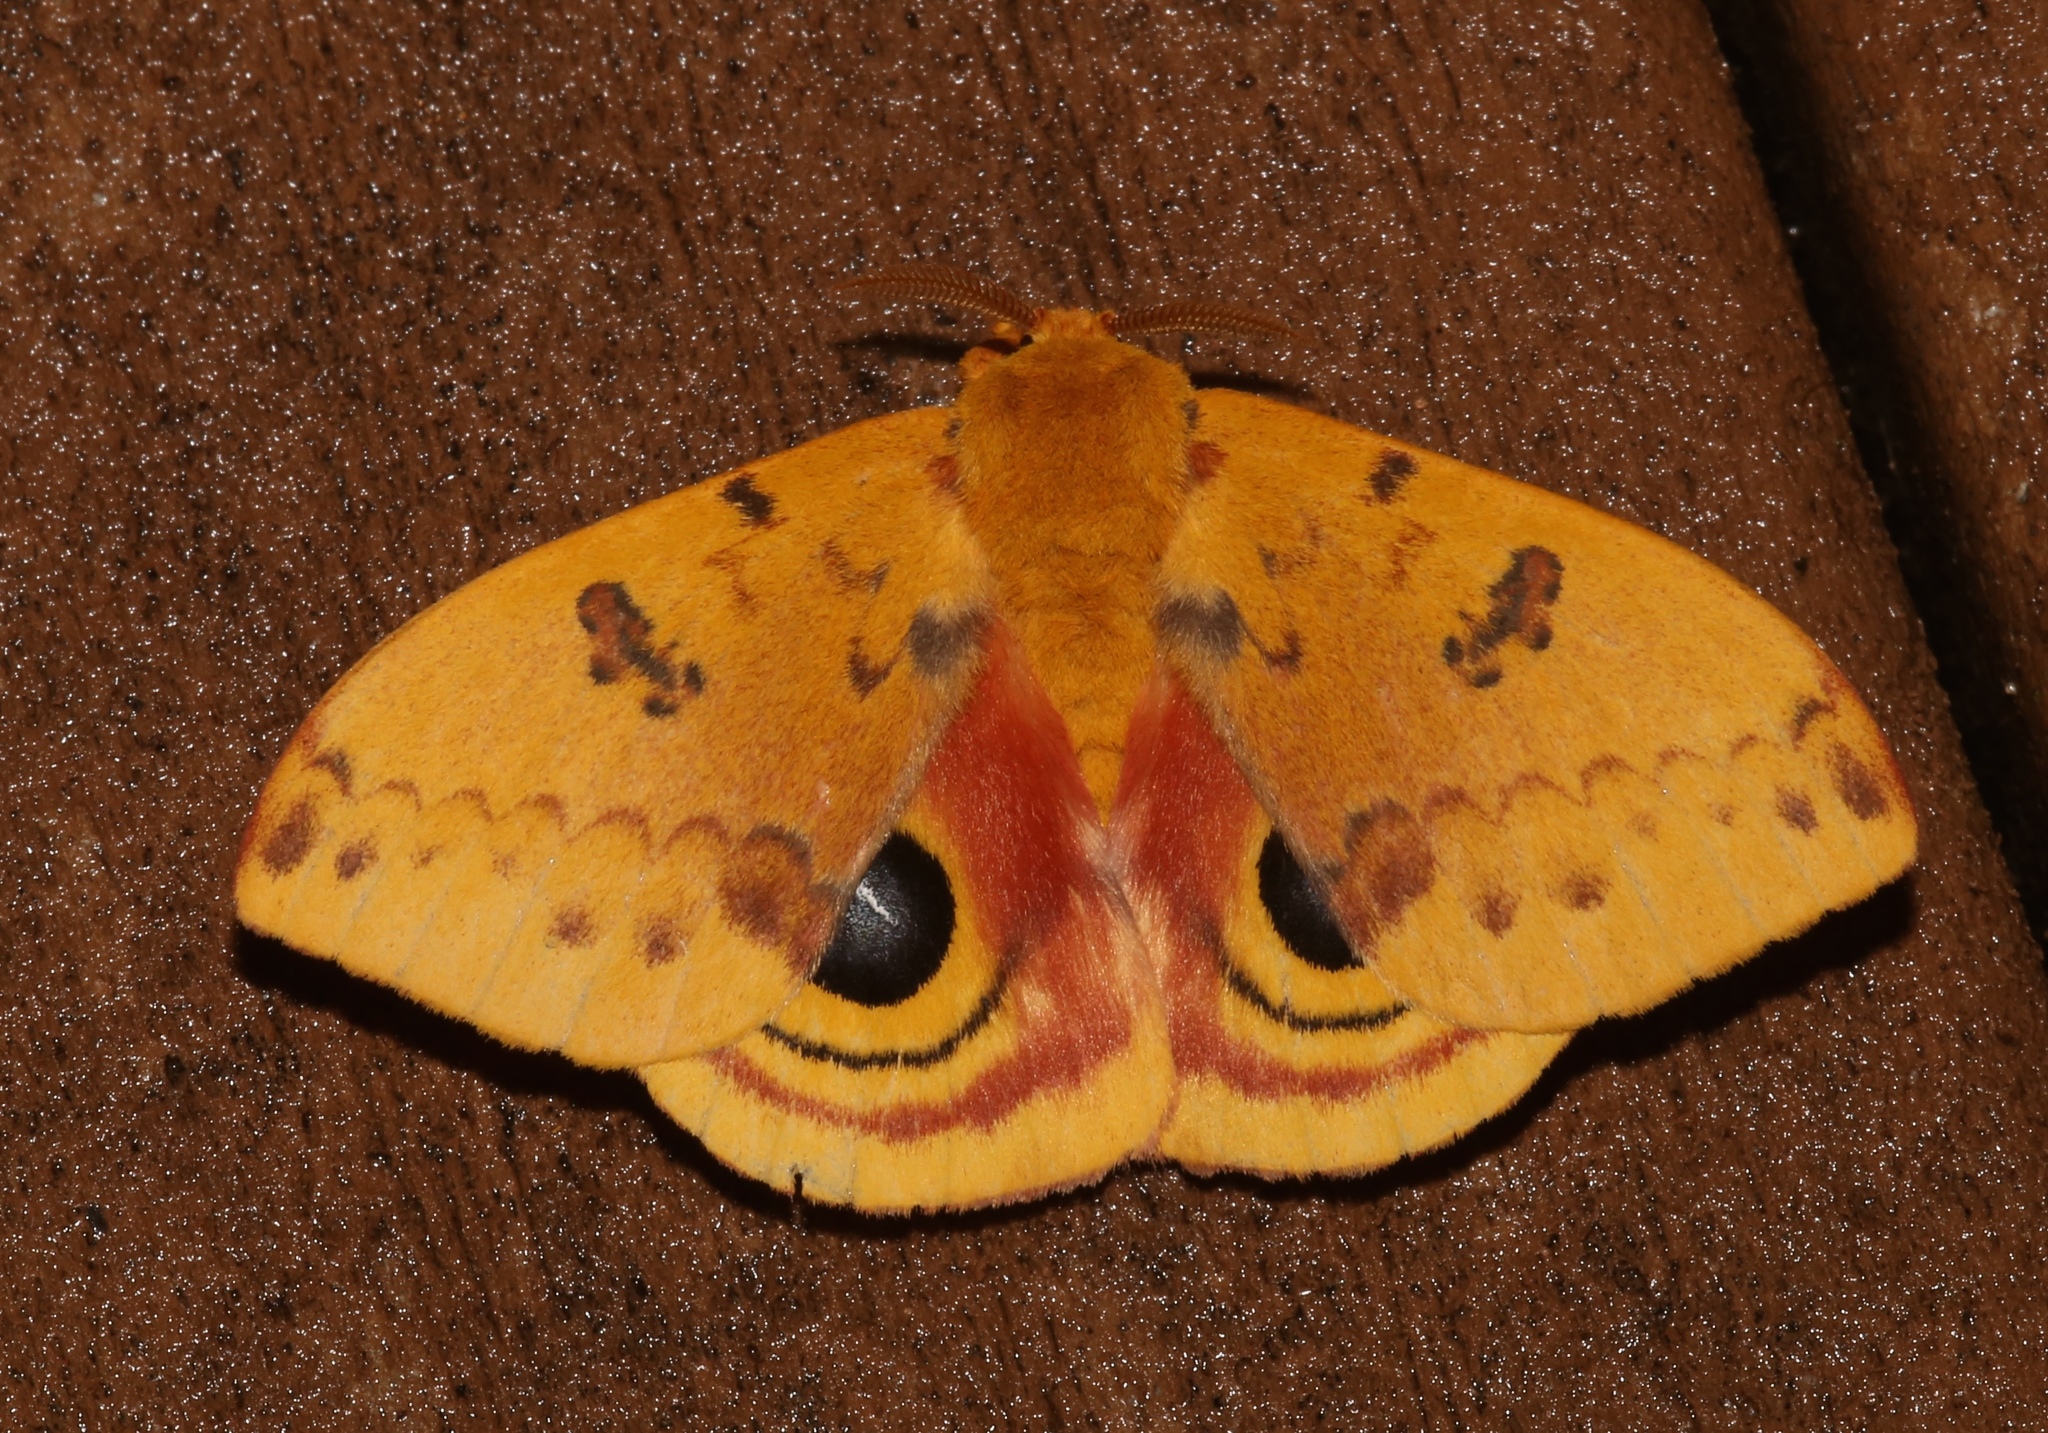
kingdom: Animalia
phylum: Arthropoda
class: Insecta
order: Lepidoptera
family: Saturniidae
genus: Automeris
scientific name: Automeris io
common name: Io moth
